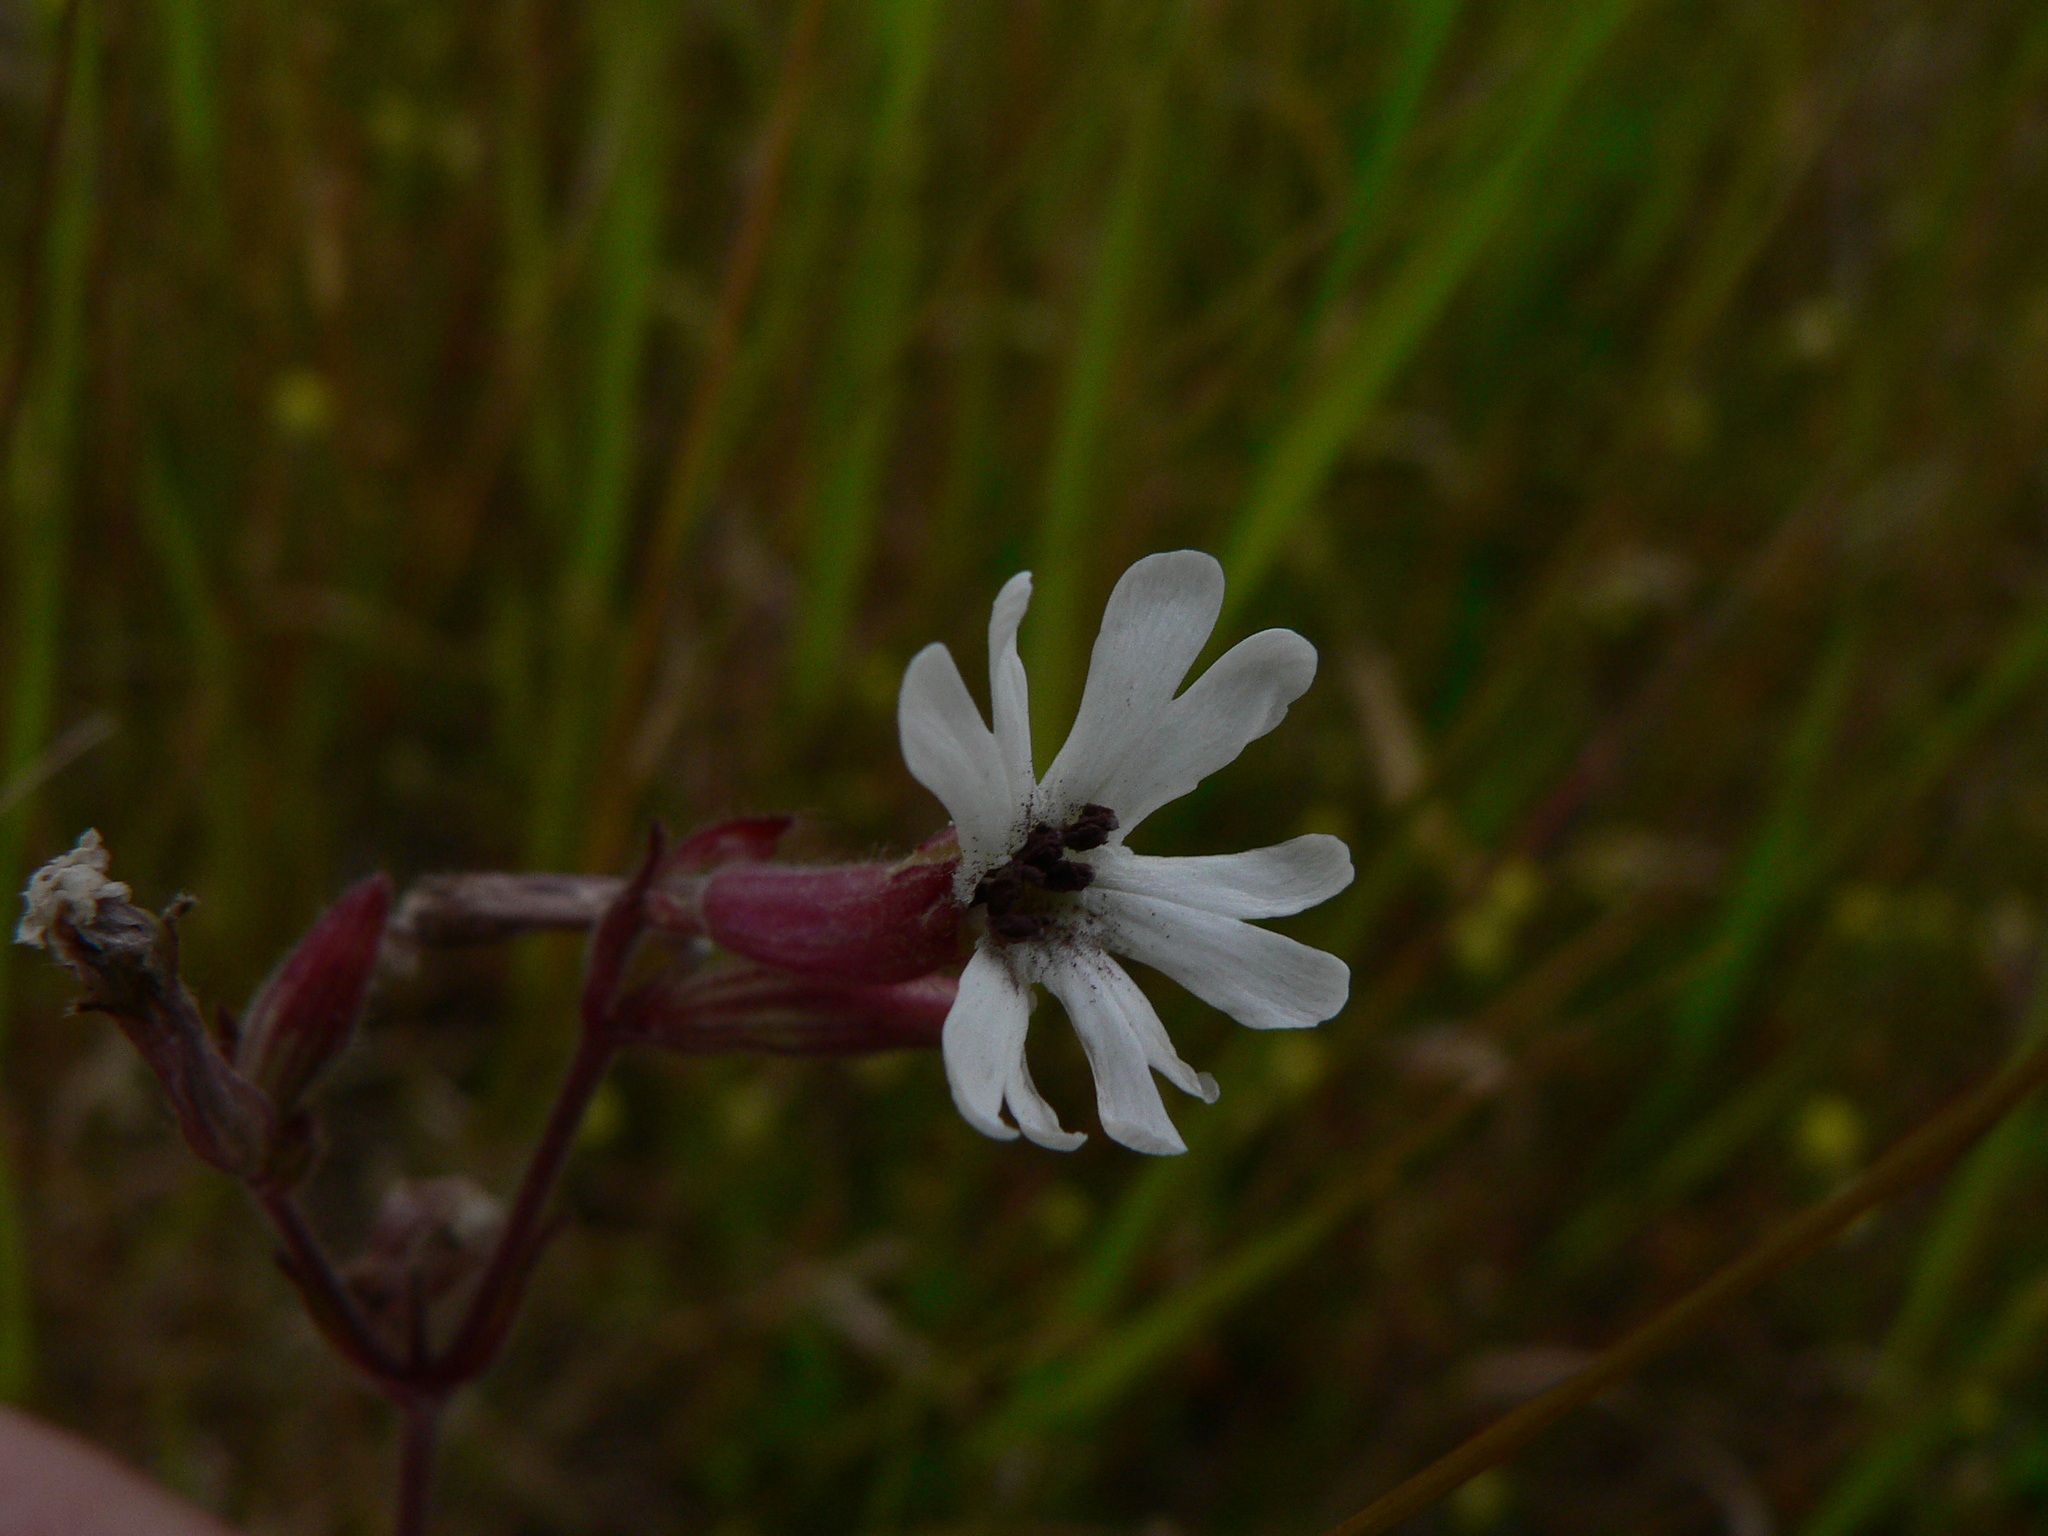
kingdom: Plantae
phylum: Tracheophyta
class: Magnoliopsida
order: Caryophyllales
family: Caryophyllaceae
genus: Silene
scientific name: Silene latifolia
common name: White campion
